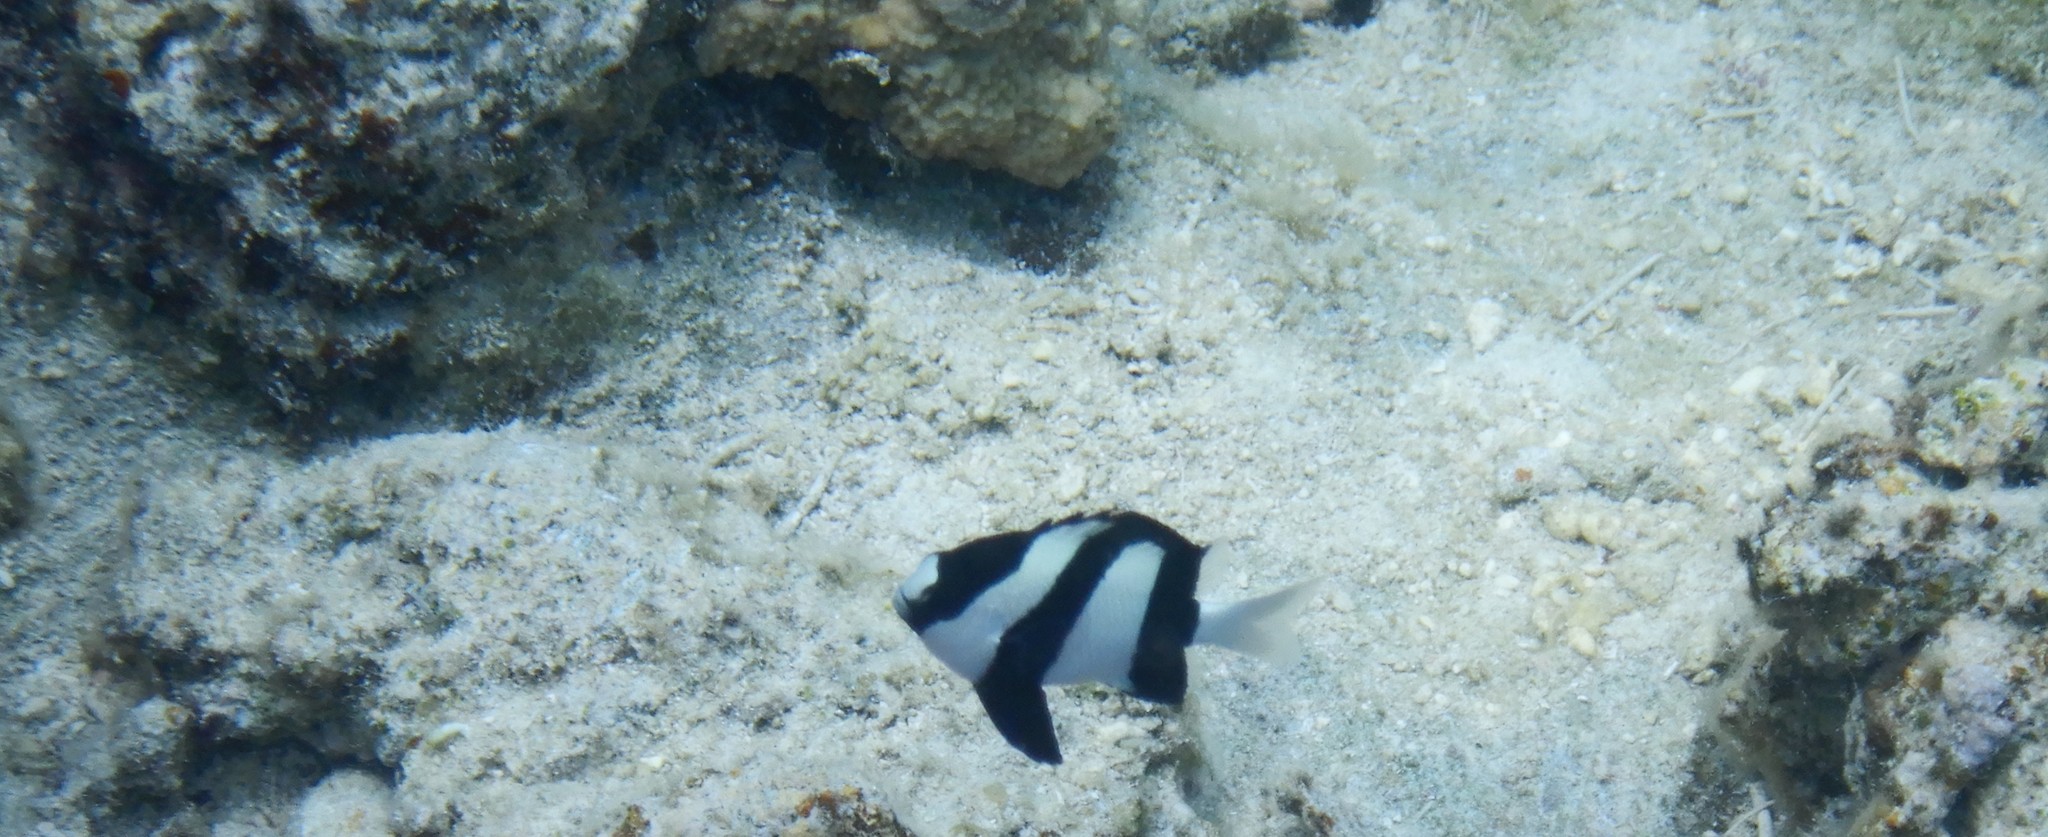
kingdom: Animalia
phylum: Chordata
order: Perciformes
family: Pomacentridae
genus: Dascyllus
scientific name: Dascyllus aruanus
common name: Humbug dascyllus
